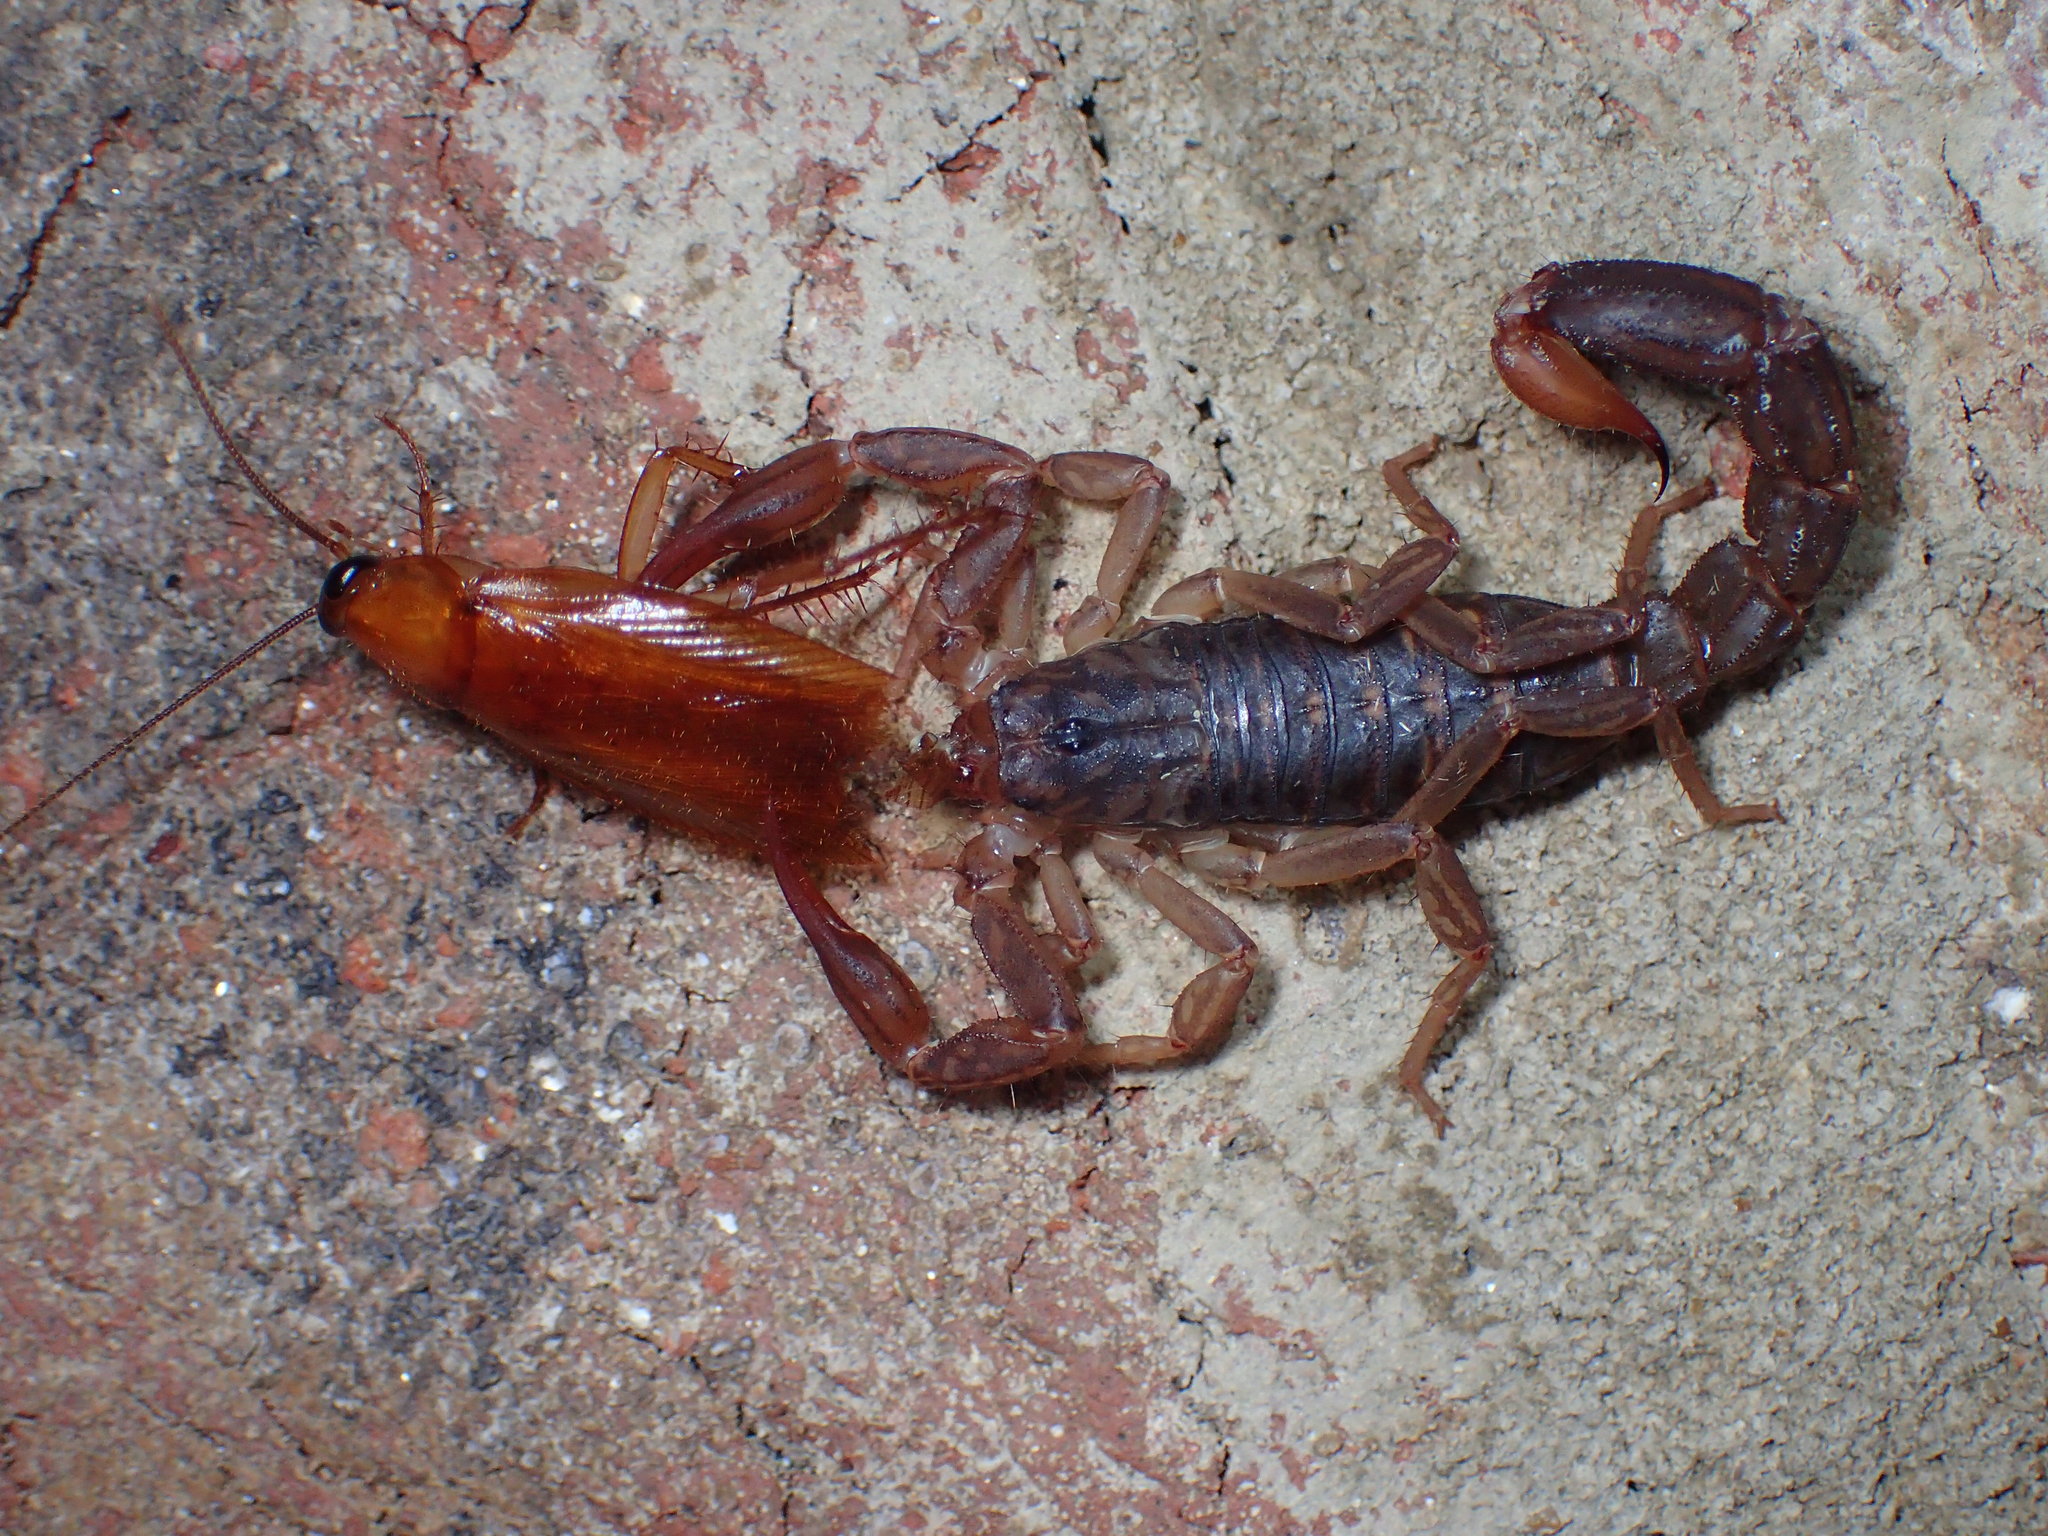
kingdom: Animalia
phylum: Arthropoda
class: Arachnida
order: Scorpiones
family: Vaejovidae
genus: Vaejovis
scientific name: Vaejovis carolinianus
